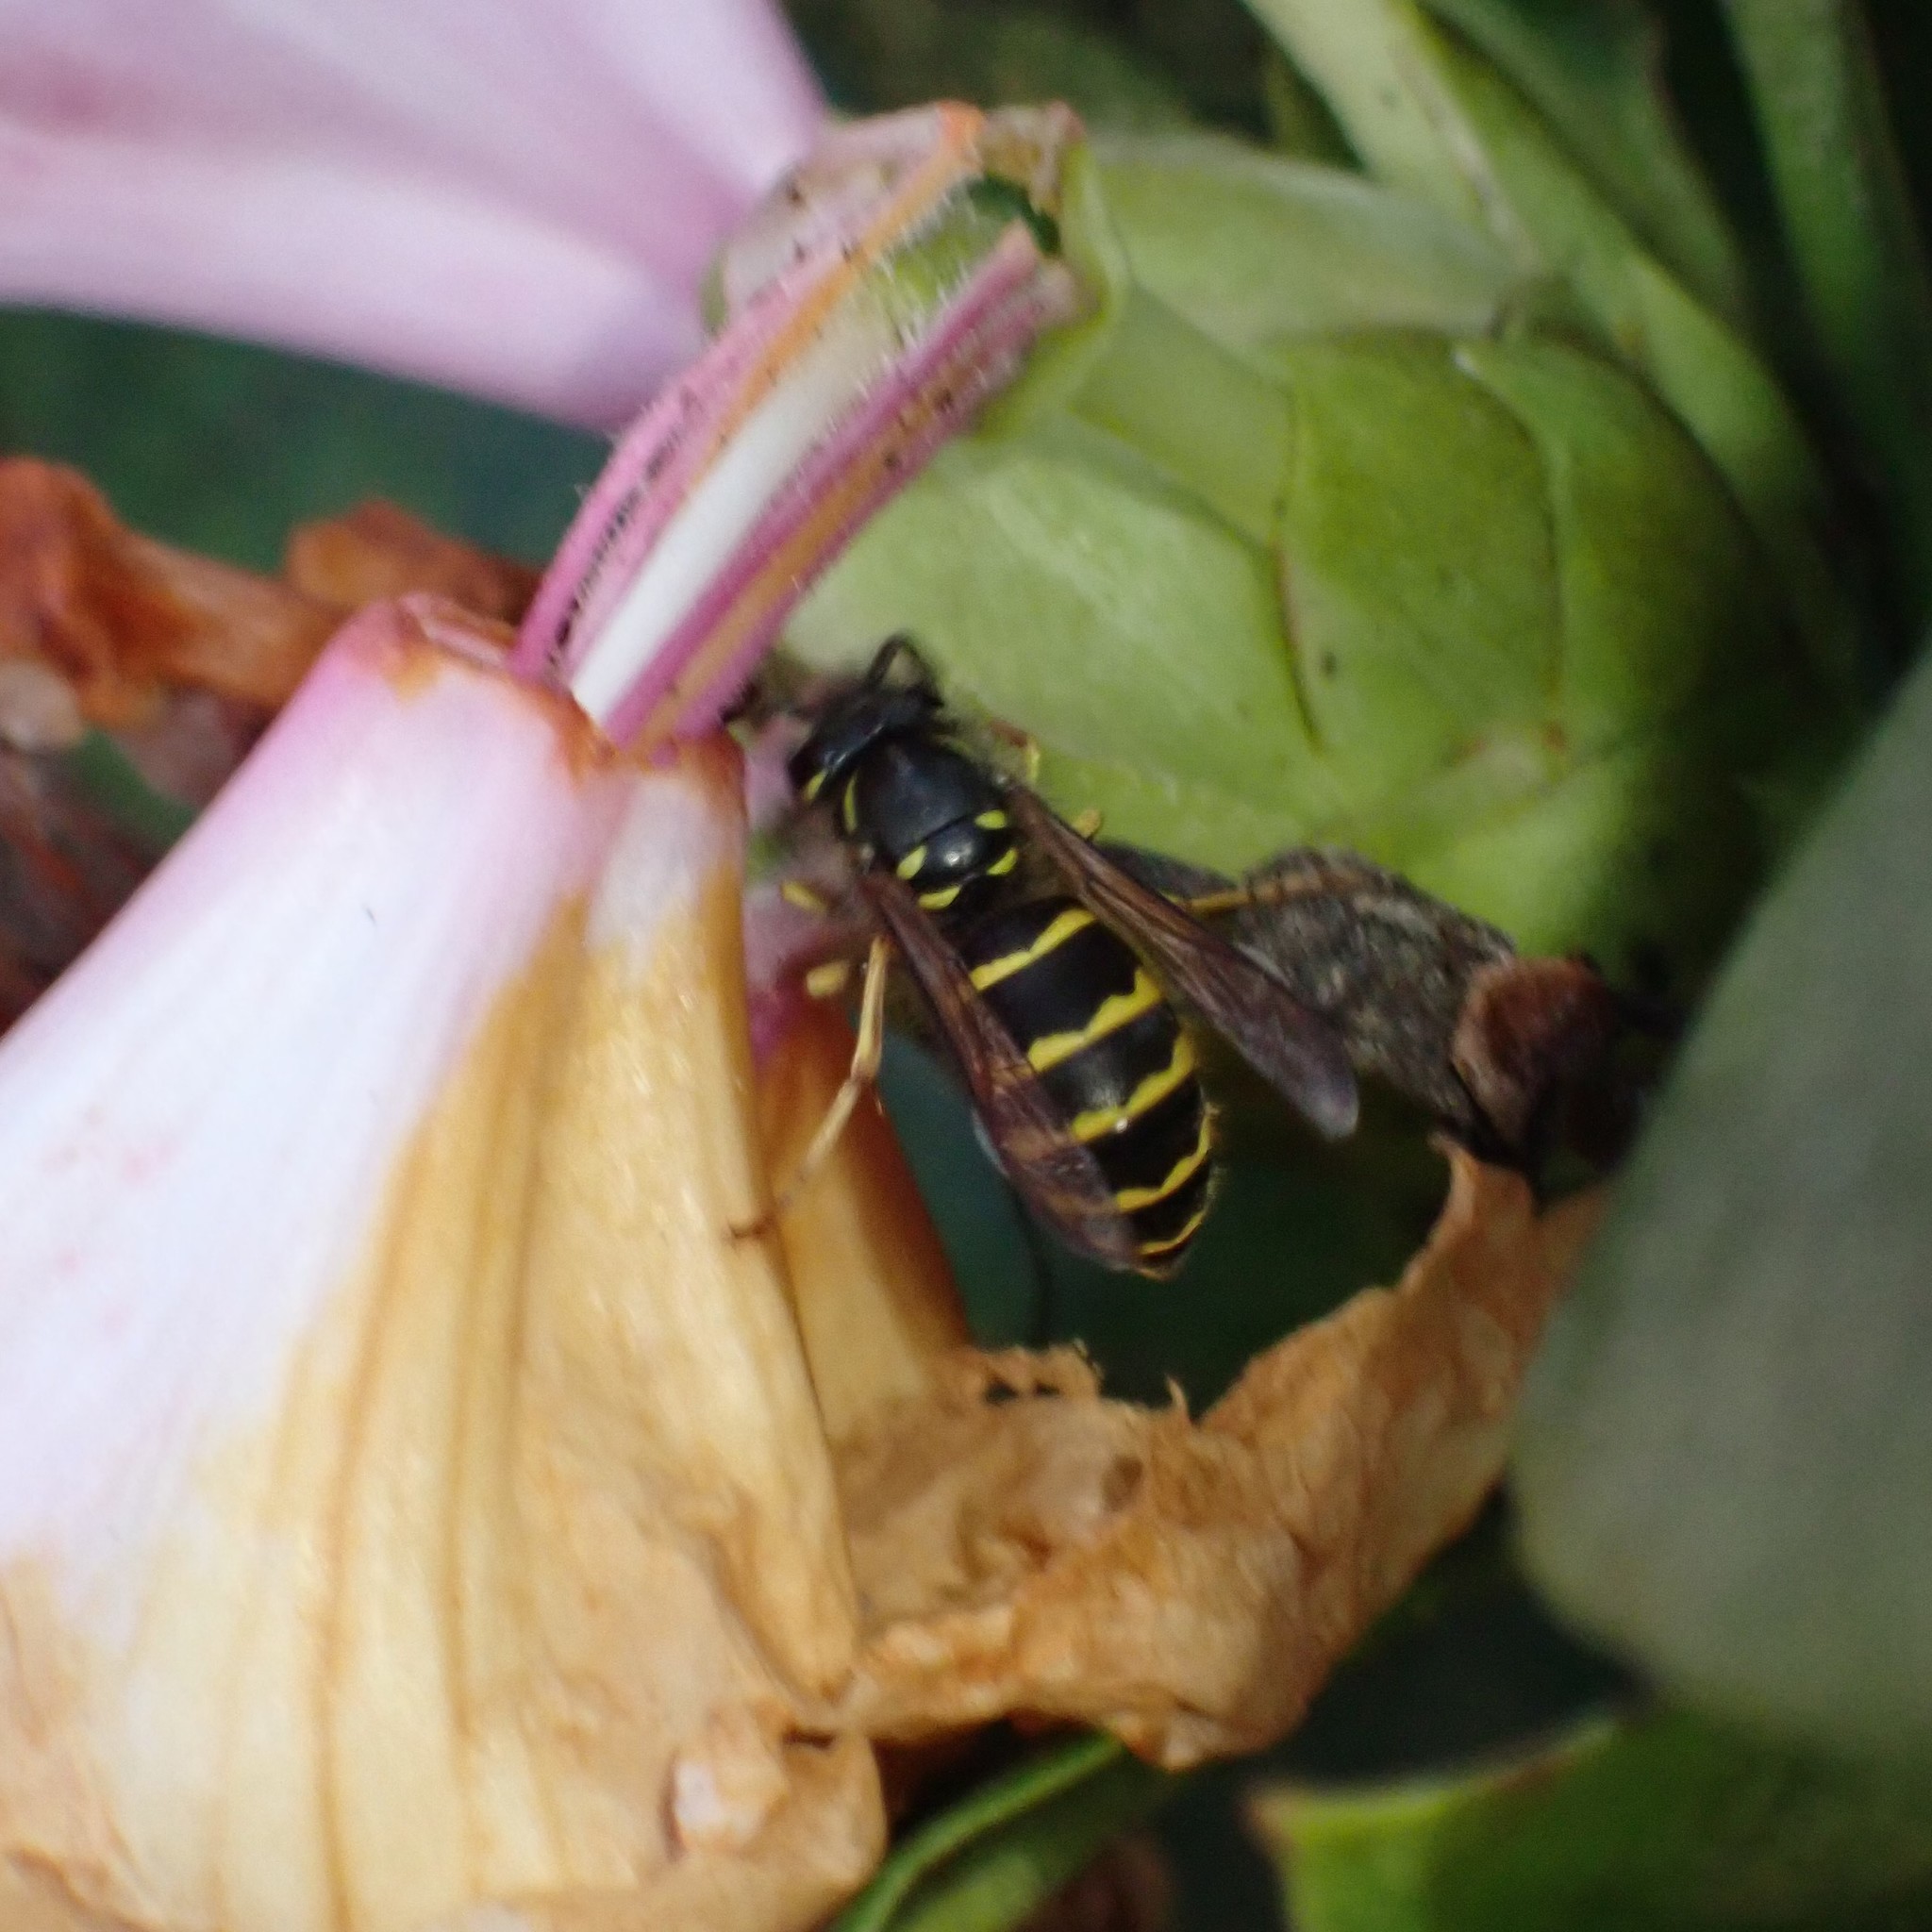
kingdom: Animalia
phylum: Arthropoda
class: Insecta
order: Hymenoptera
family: Vespidae
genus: Vespula
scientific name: Vespula alascensis
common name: Alaska yellowjacket
